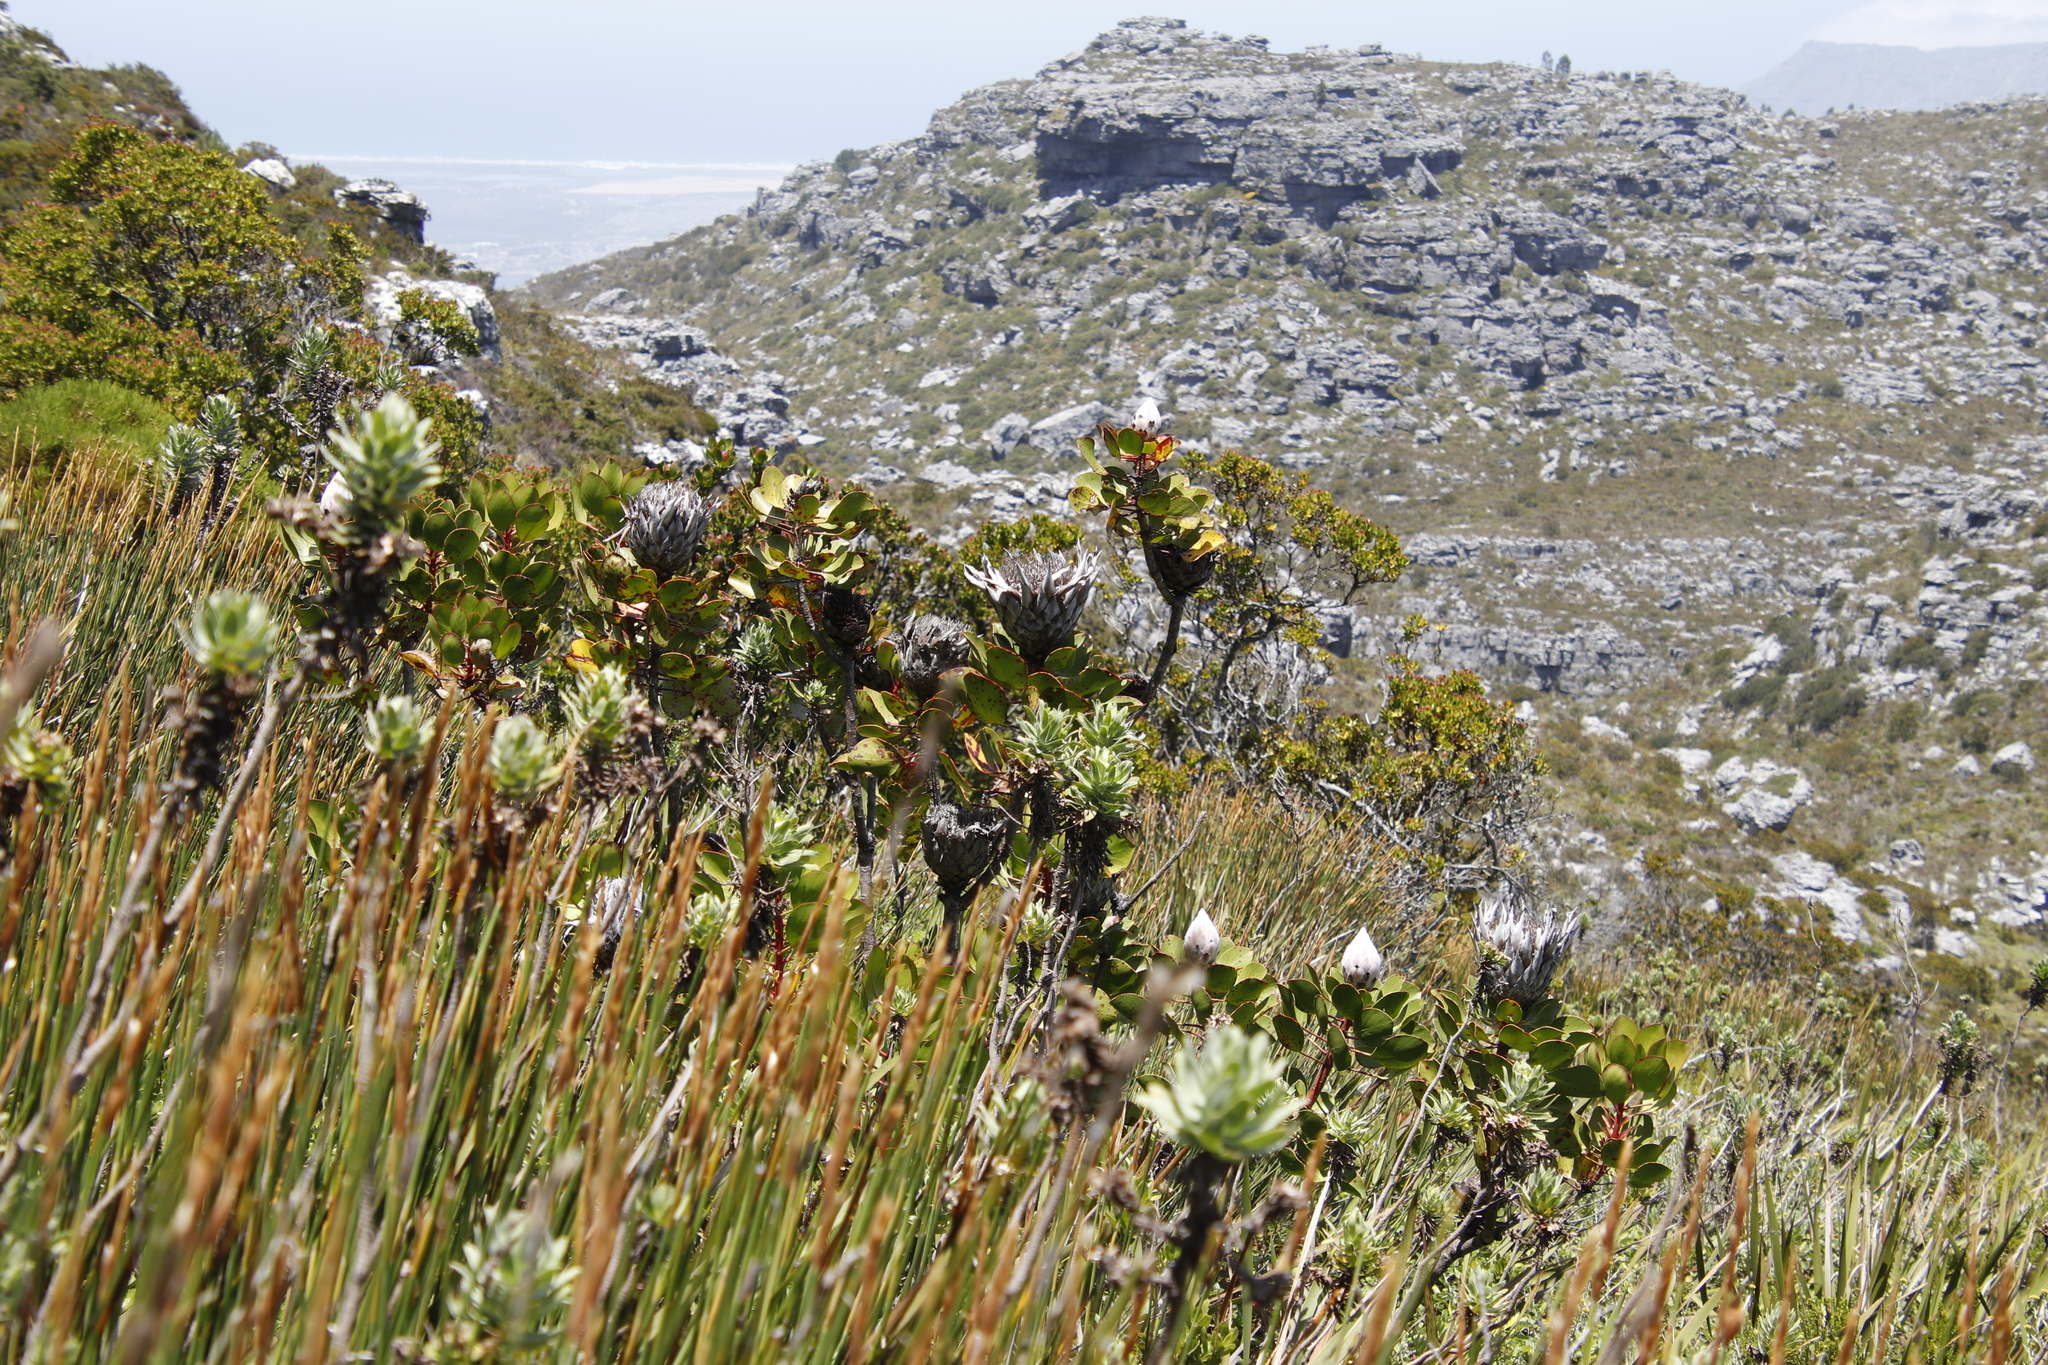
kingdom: Plantae
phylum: Tracheophyta
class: Magnoliopsida
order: Proteales
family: Proteaceae
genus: Protea
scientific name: Protea cynaroides
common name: King protea
